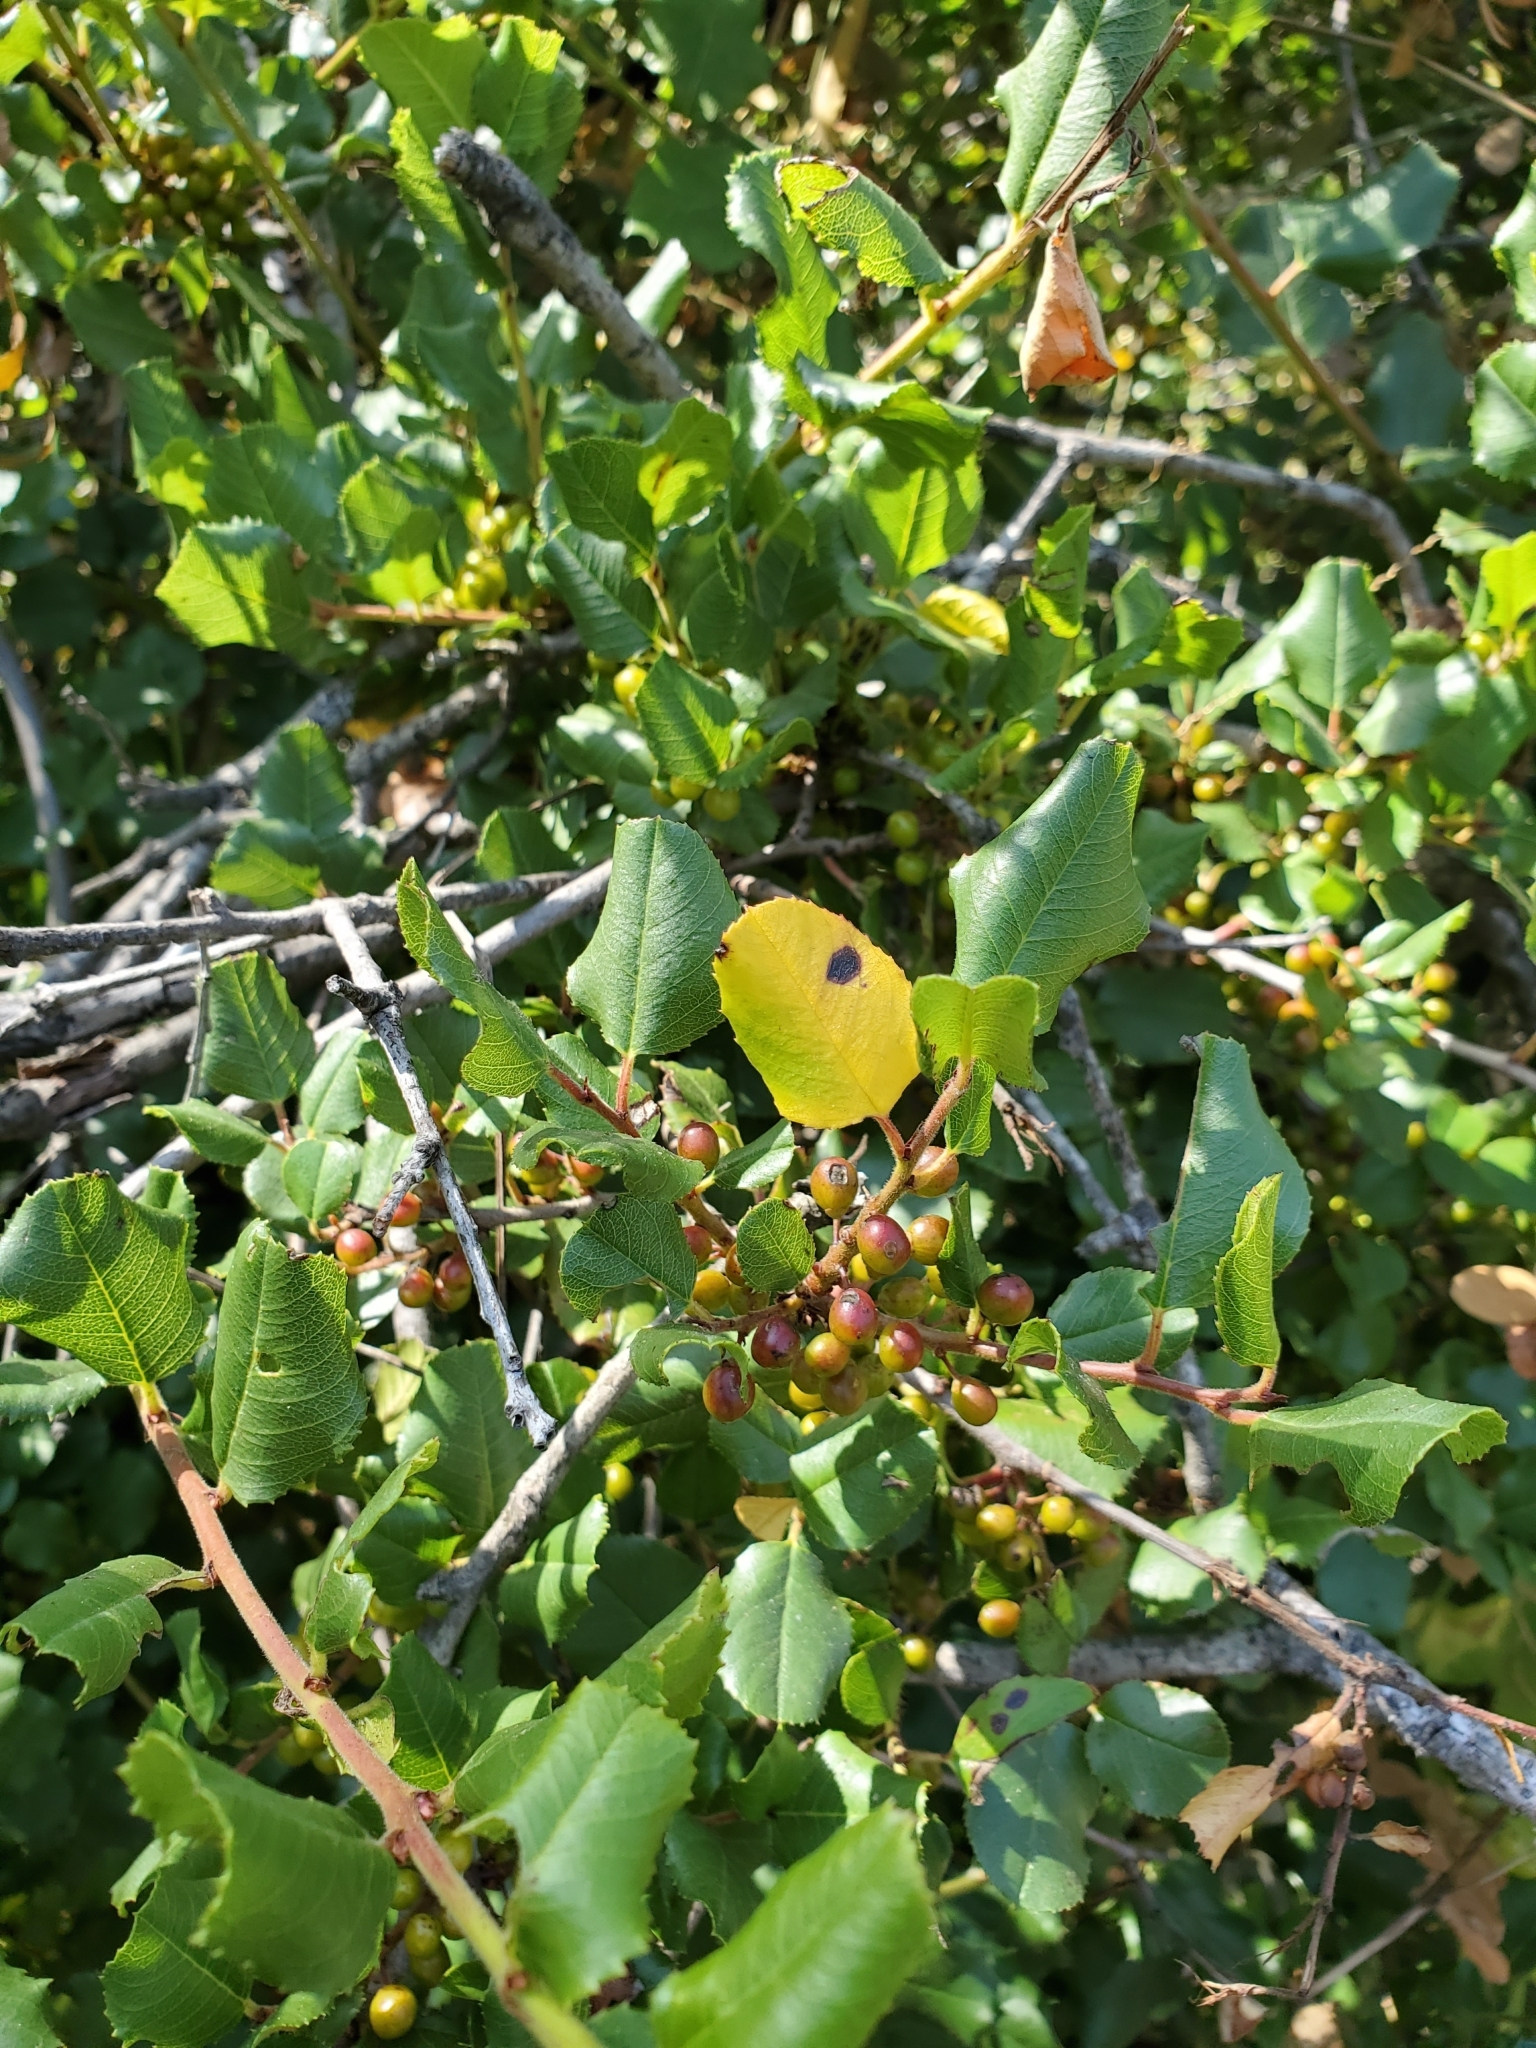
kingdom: Plantae
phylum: Tracheophyta
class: Magnoliopsida
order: Rosales
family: Rhamnaceae
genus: Endotropis
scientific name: Endotropis crocea
